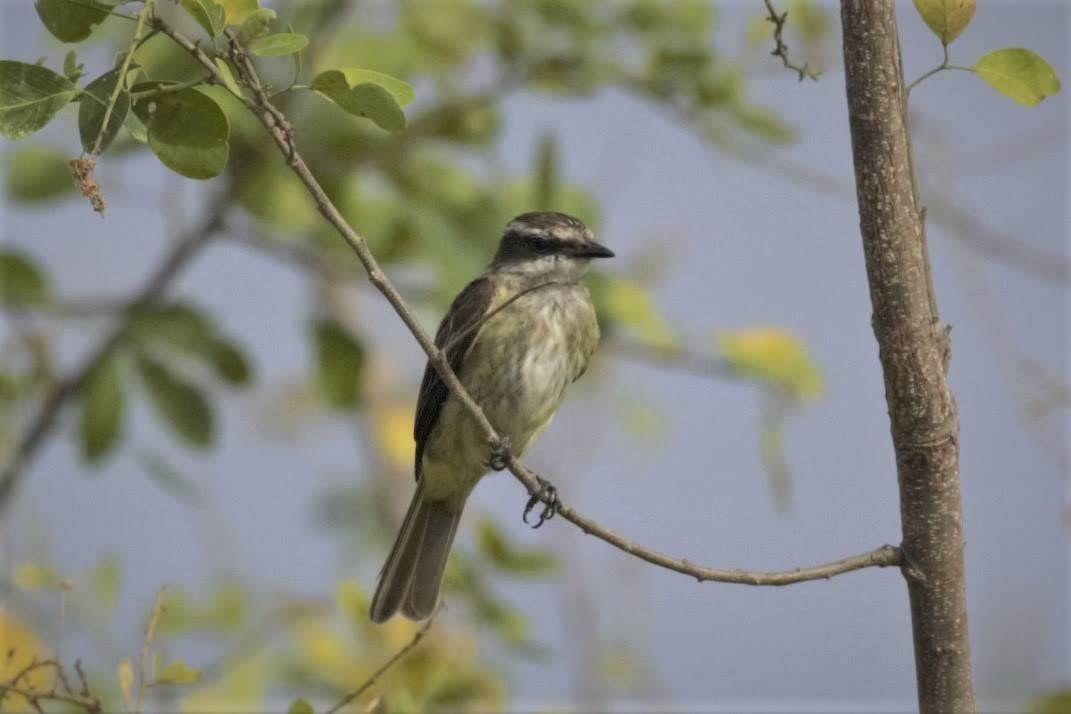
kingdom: Animalia
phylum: Chordata
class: Aves
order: Passeriformes
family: Tyrannidae
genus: Legatus
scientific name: Legatus leucophaius
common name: Piratic flycatcher
